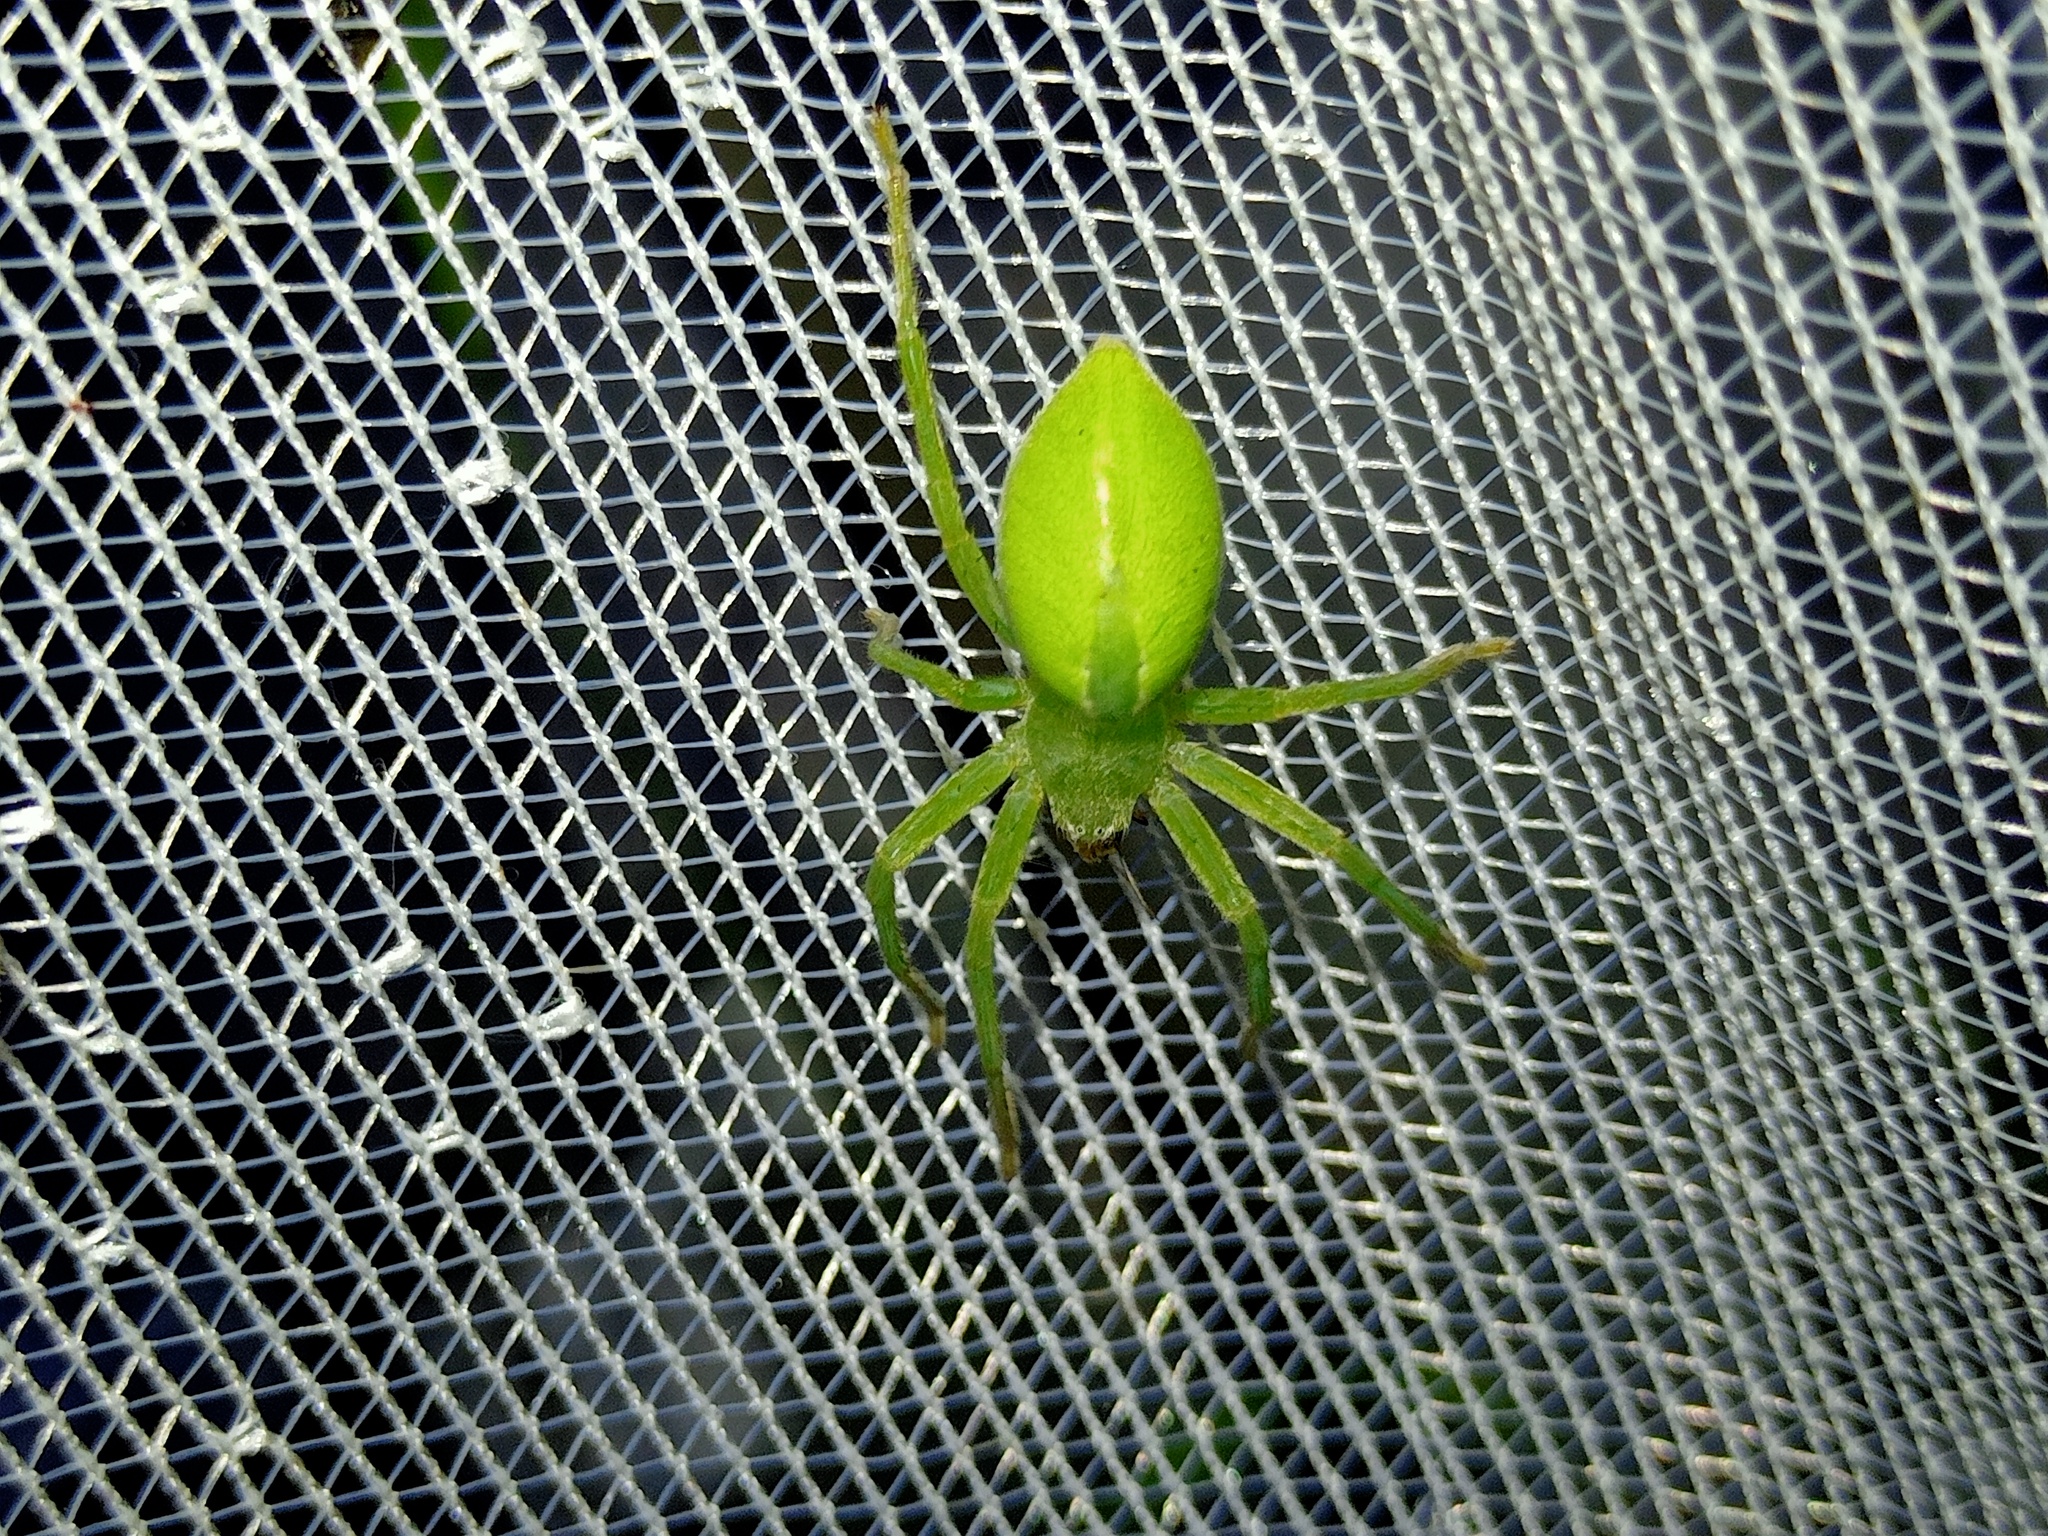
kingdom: Animalia
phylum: Arthropoda
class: Arachnida
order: Araneae
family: Sparassidae
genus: Micrommata
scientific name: Micrommata virescens
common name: Green spider
